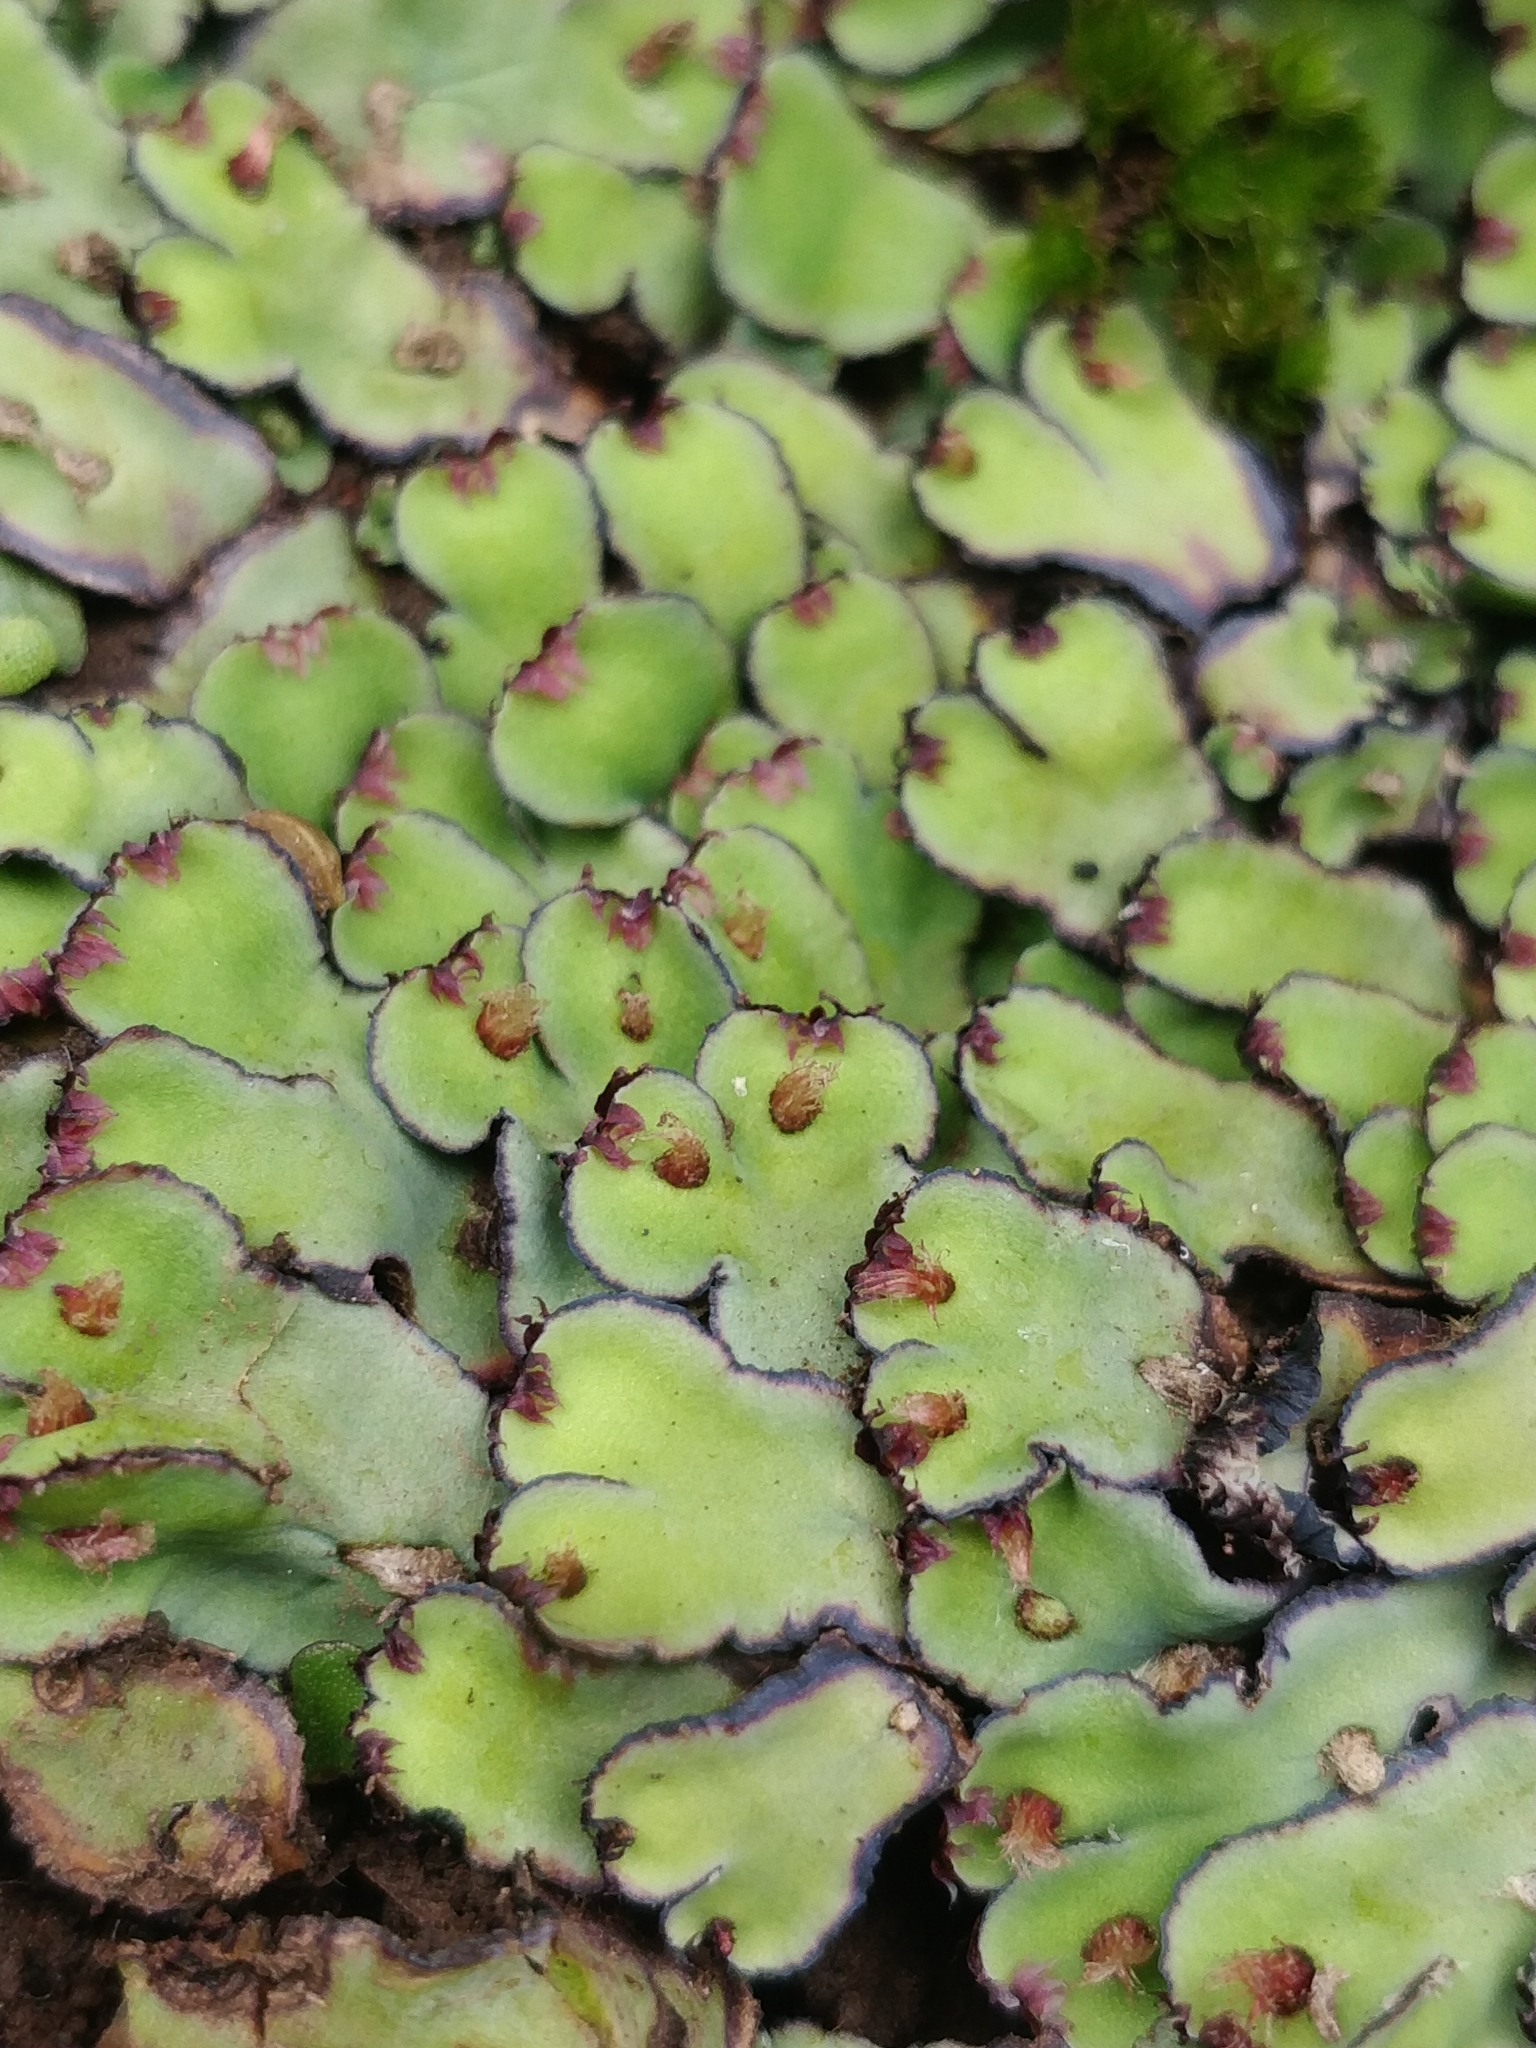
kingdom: Plantae
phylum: Marchantiophyta
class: Marchantiopsida
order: Marchantiales
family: Aytoniaceae
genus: Plagiochasma
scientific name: Plagiochasma rupestre
